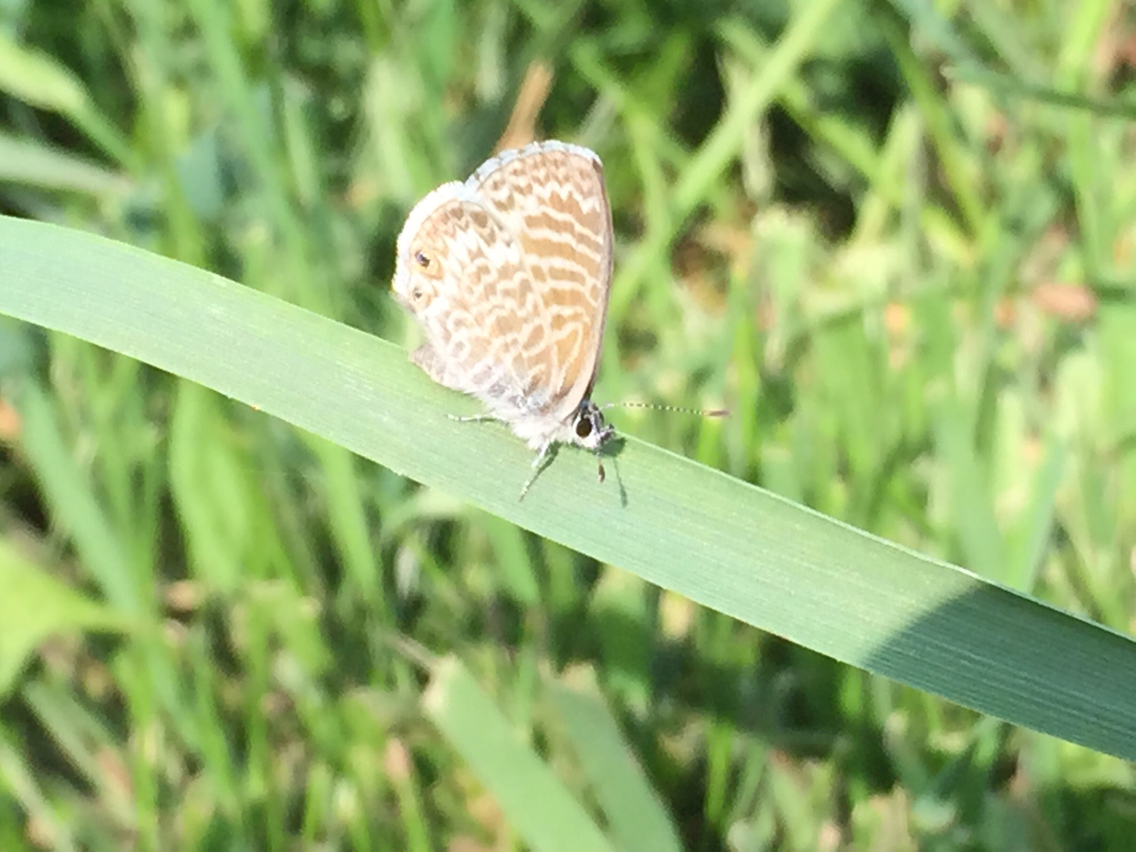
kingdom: Animalia
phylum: Arthropoda
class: Insecta
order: Lepidoptera
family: Lycaenidae
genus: Leptotes
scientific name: Leptotes marina
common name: Marine blue
